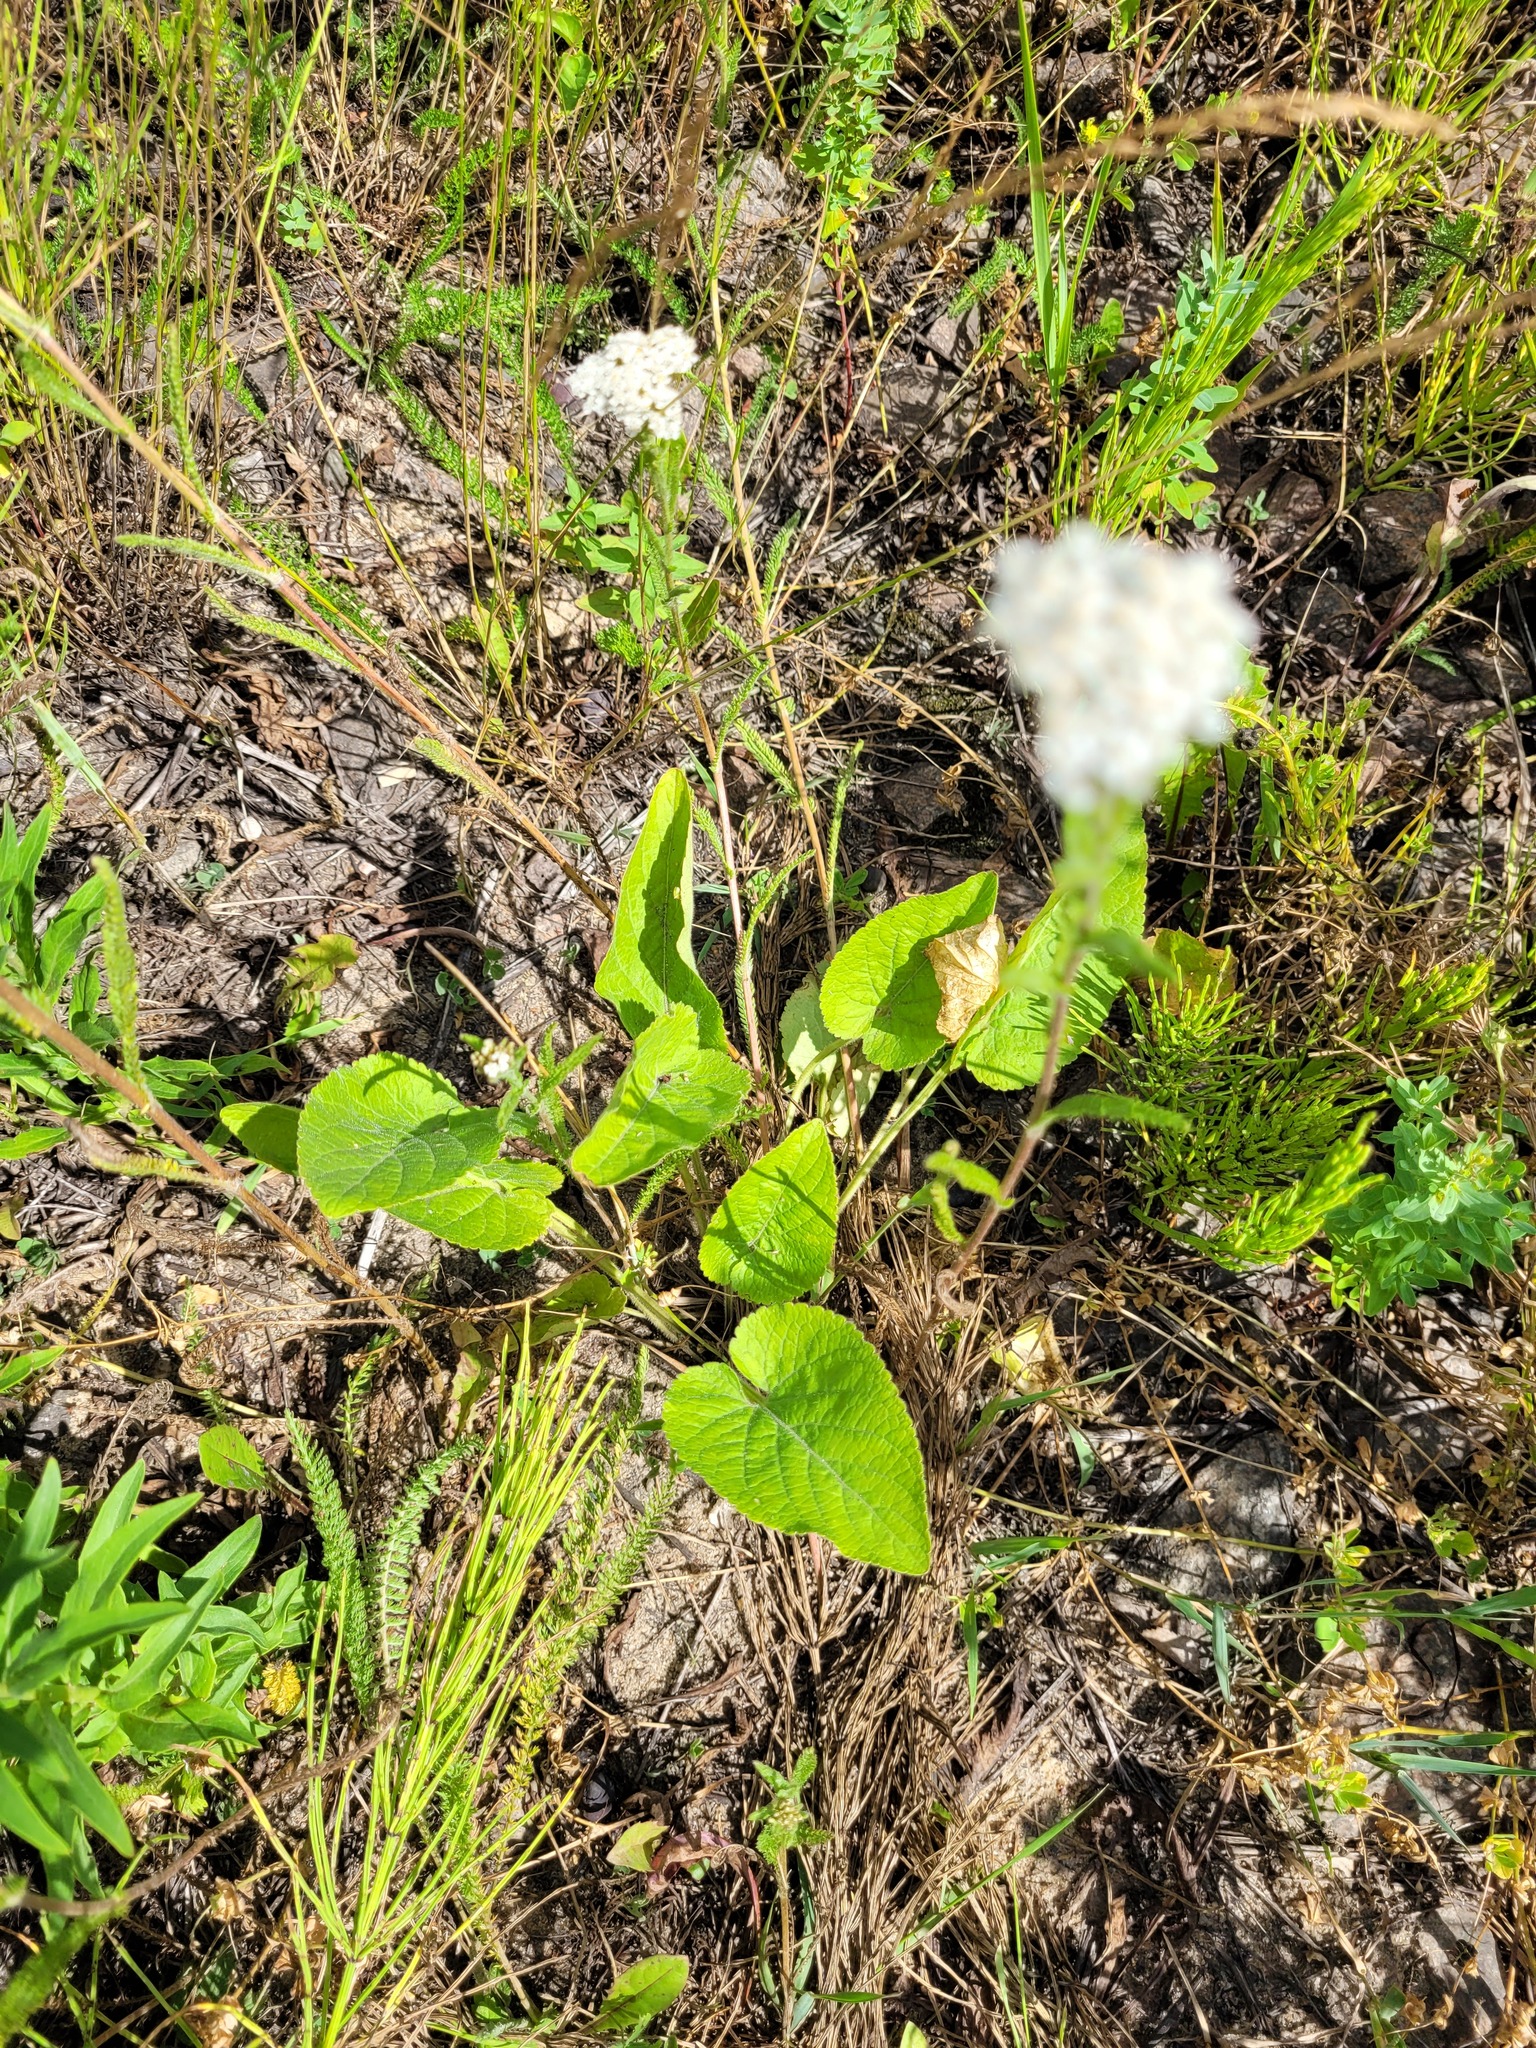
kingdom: Plantae
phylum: Tracheophyta
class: Magnoliopsida
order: Malpighiales
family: Violaceae
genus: Viola
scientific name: Viola hirta
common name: Hairy violet
